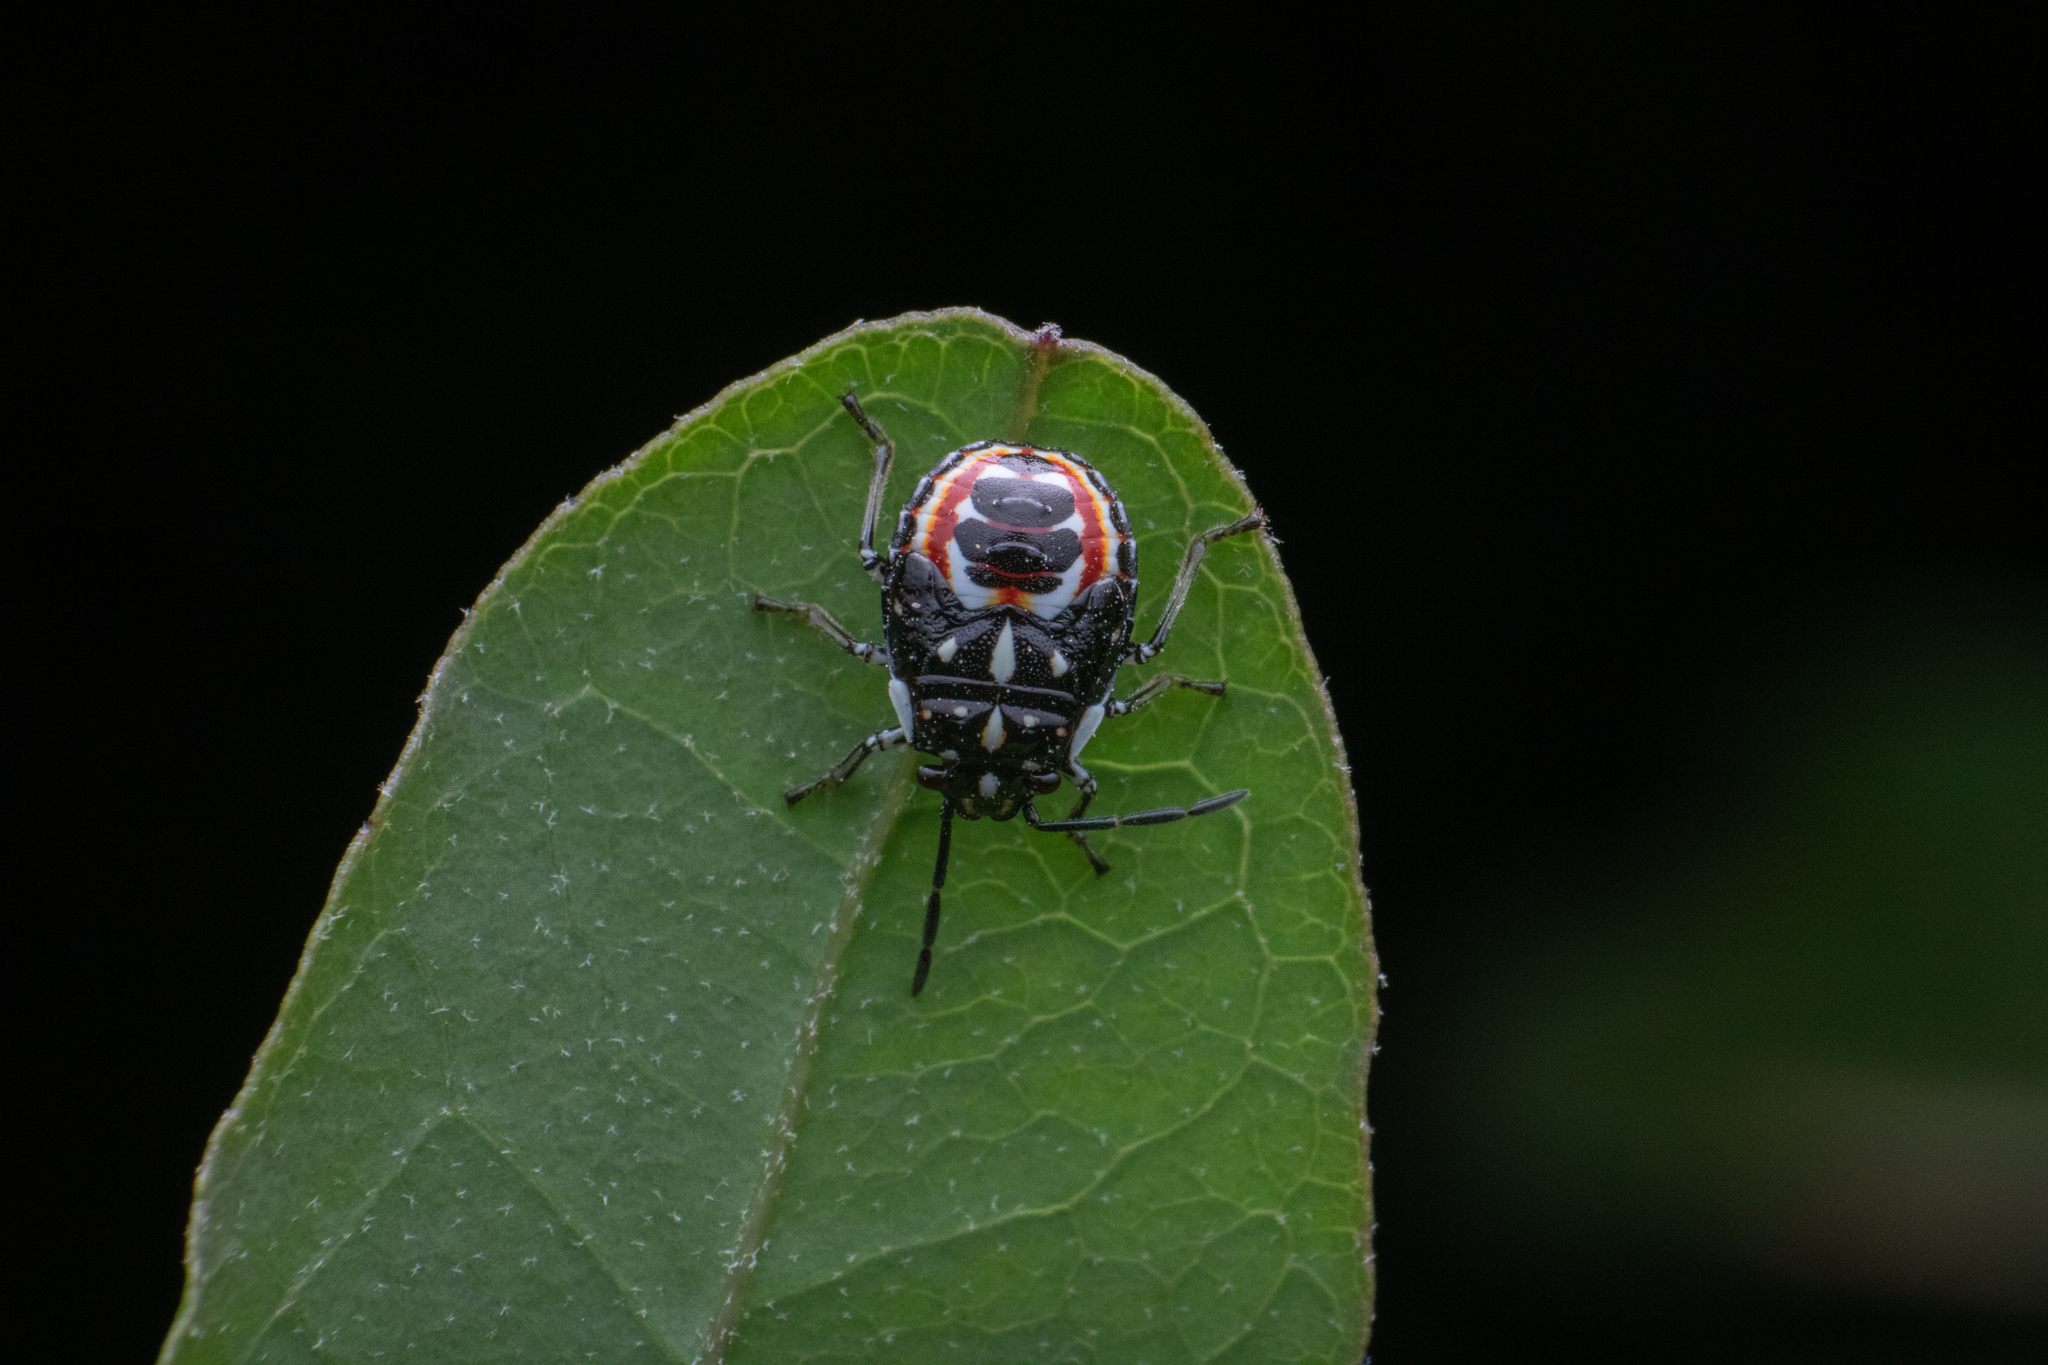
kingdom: Animalia
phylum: Arthropoda
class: Insecta
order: Hemiptera
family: Pentatomidae
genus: Bagrada
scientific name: Bagrada hilaris
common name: Bagrada bug
